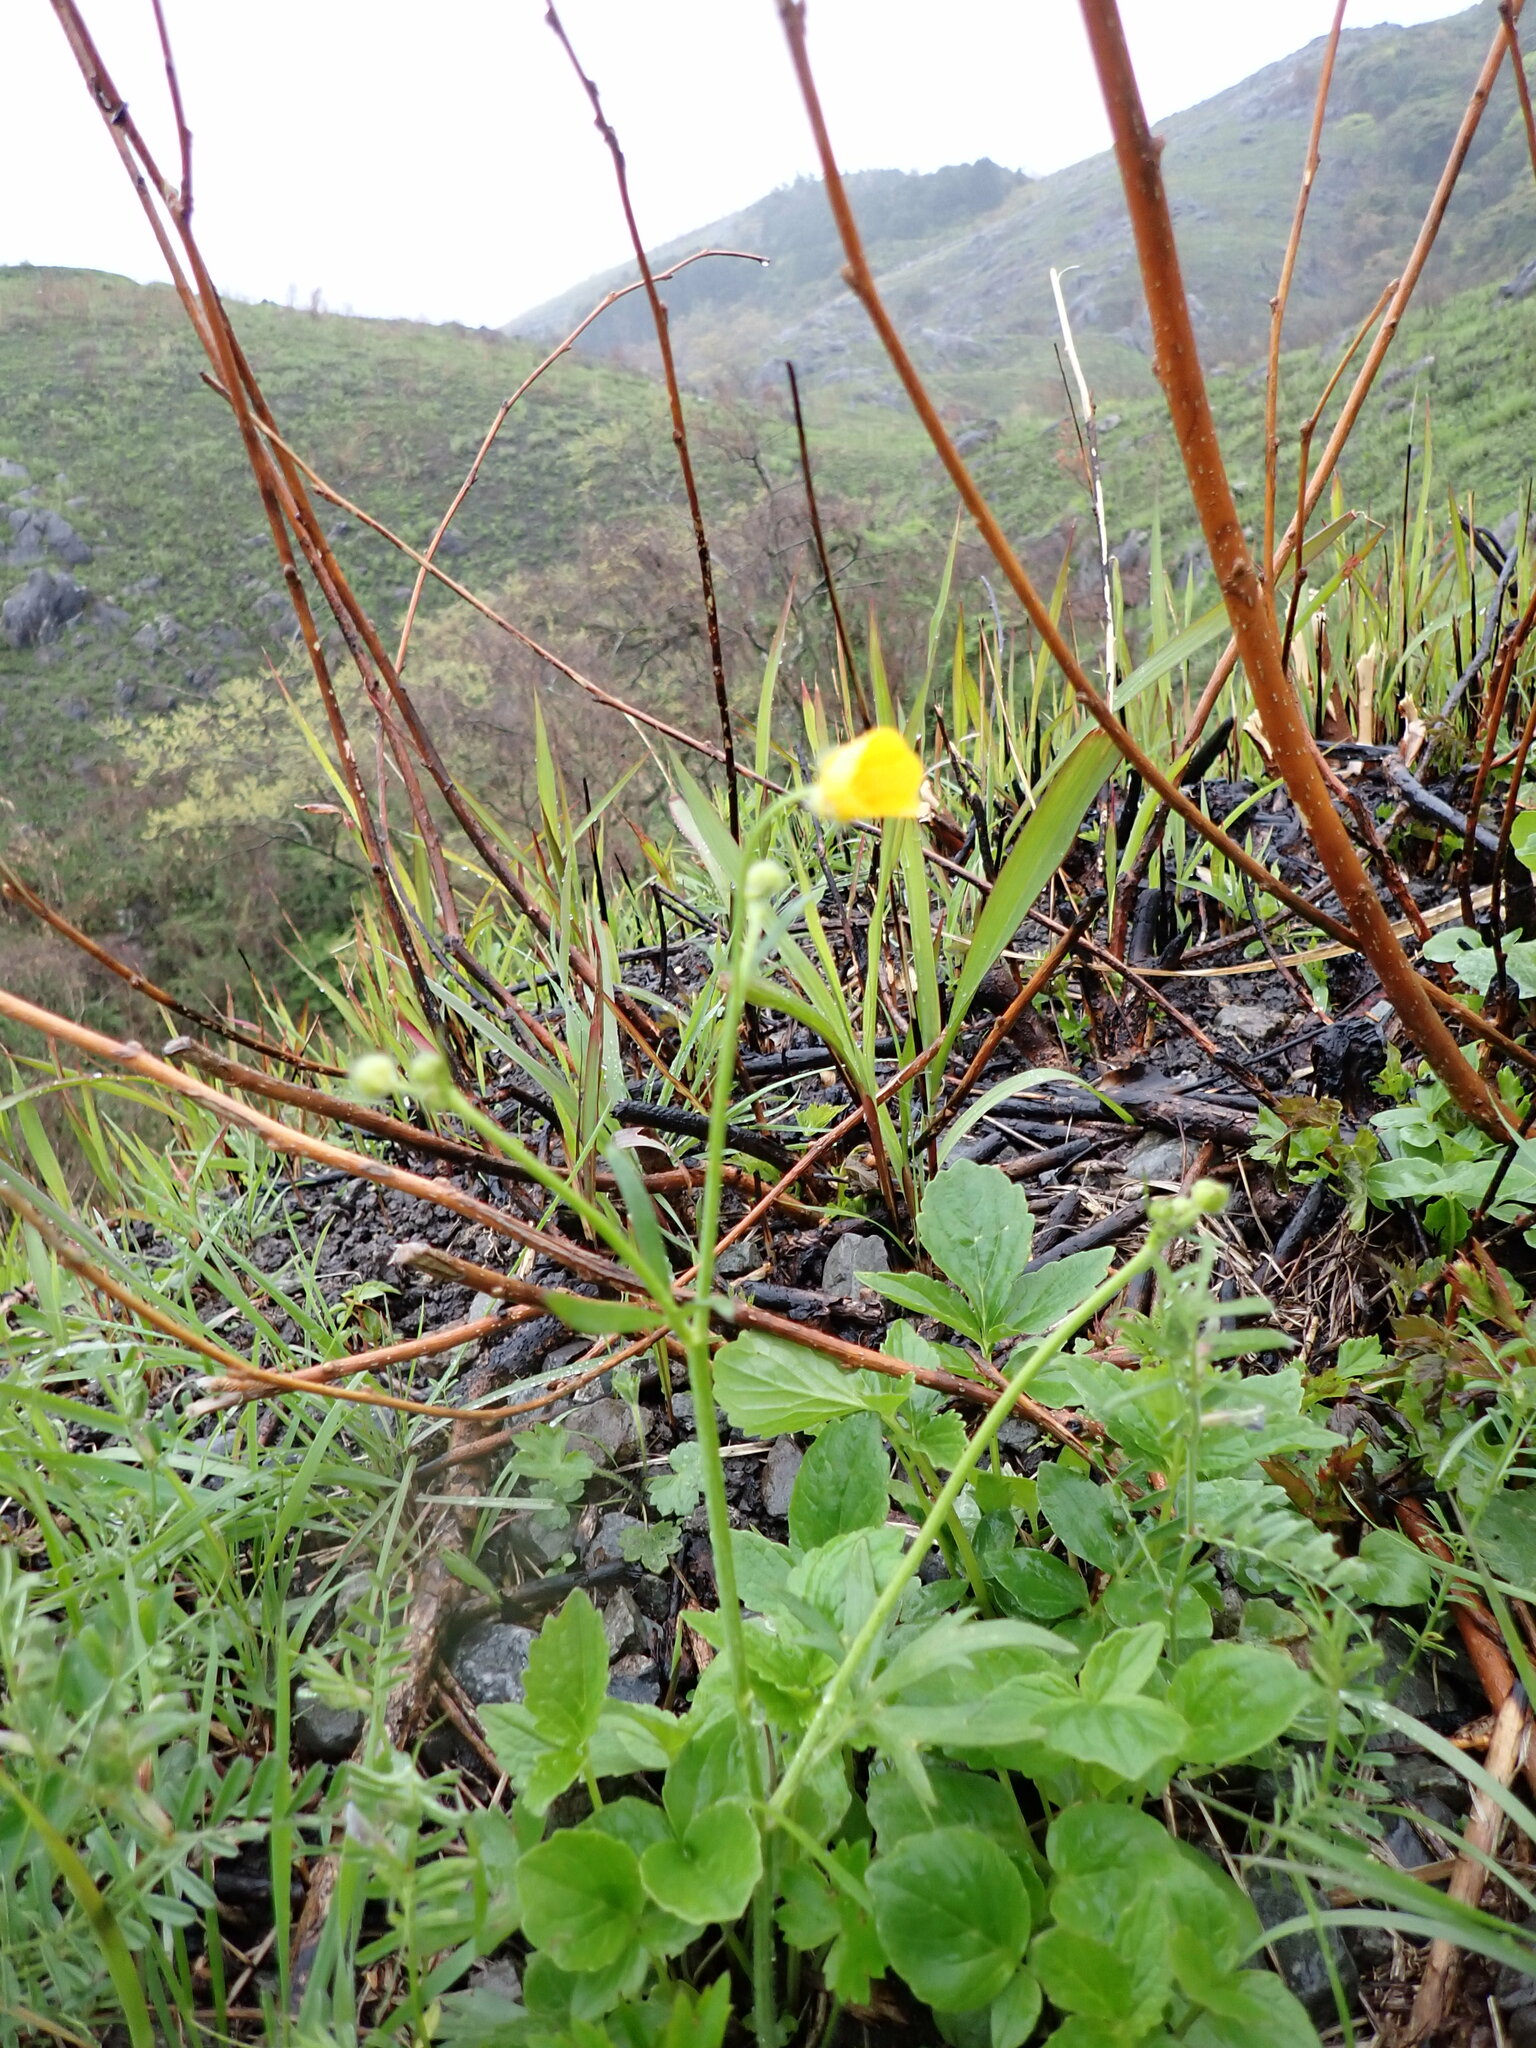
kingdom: Plantae
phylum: Tracheophyta
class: Magnoliopsida
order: Ranunculales
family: Ranunculaceae
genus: Ranunculus
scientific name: Ranunculus japonicus
